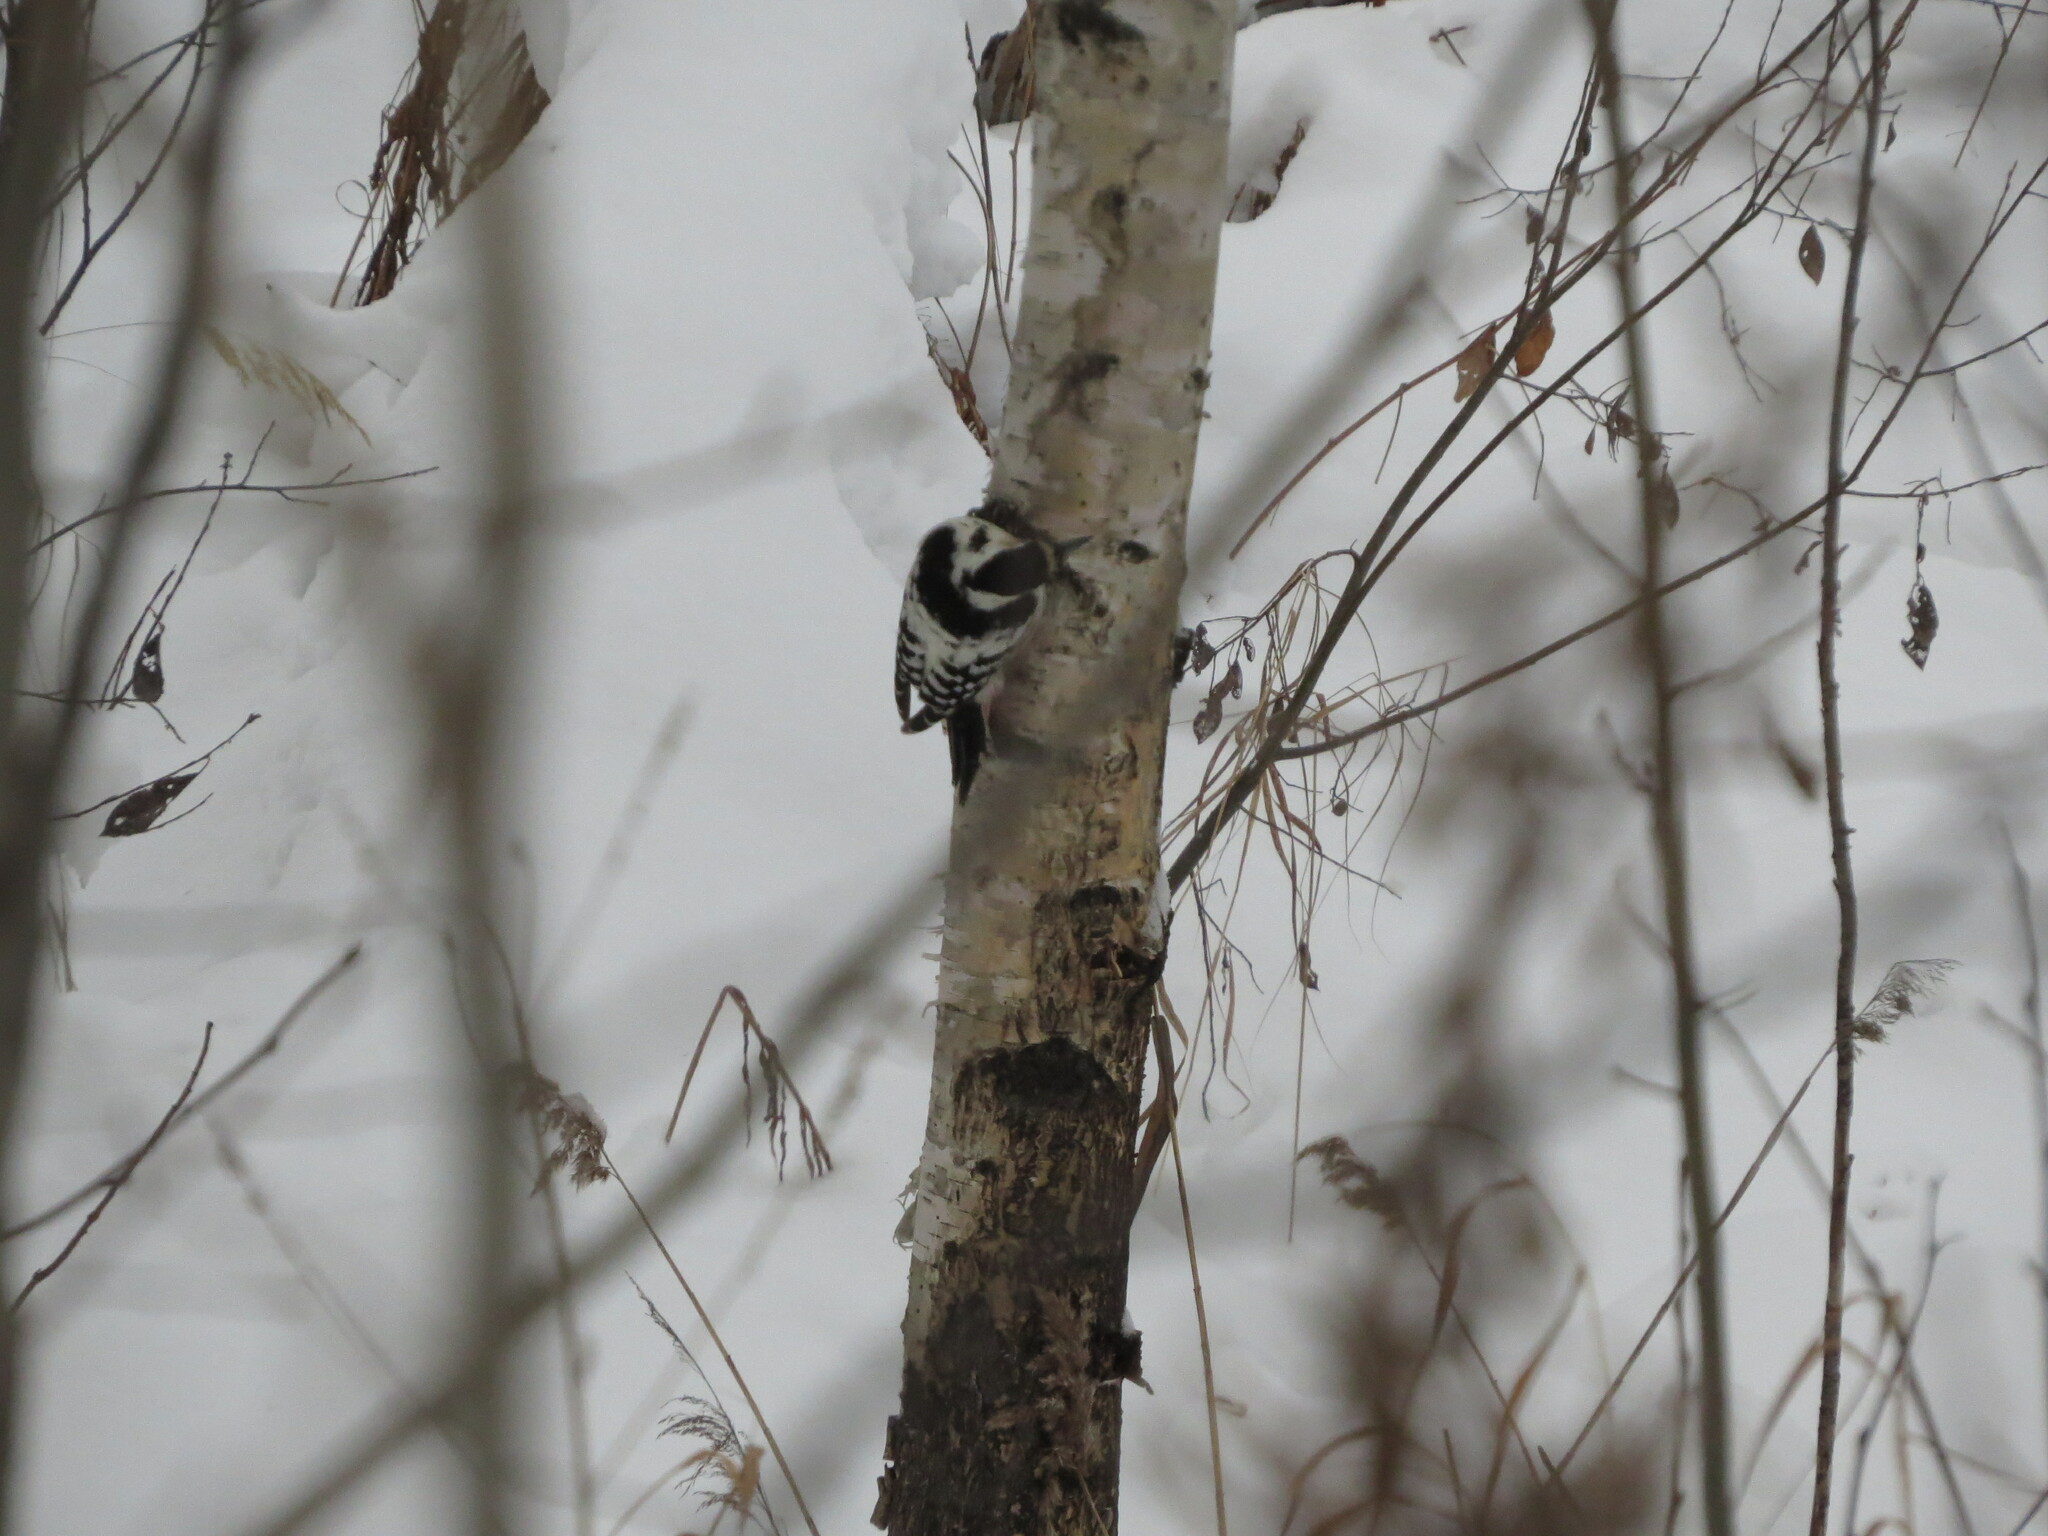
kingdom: Animalia
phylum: Chordata
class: Aves
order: Piciformes
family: Picidae
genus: Dendrocopos
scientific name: Dendrocopos leucotos
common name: White-backed woodpecker
